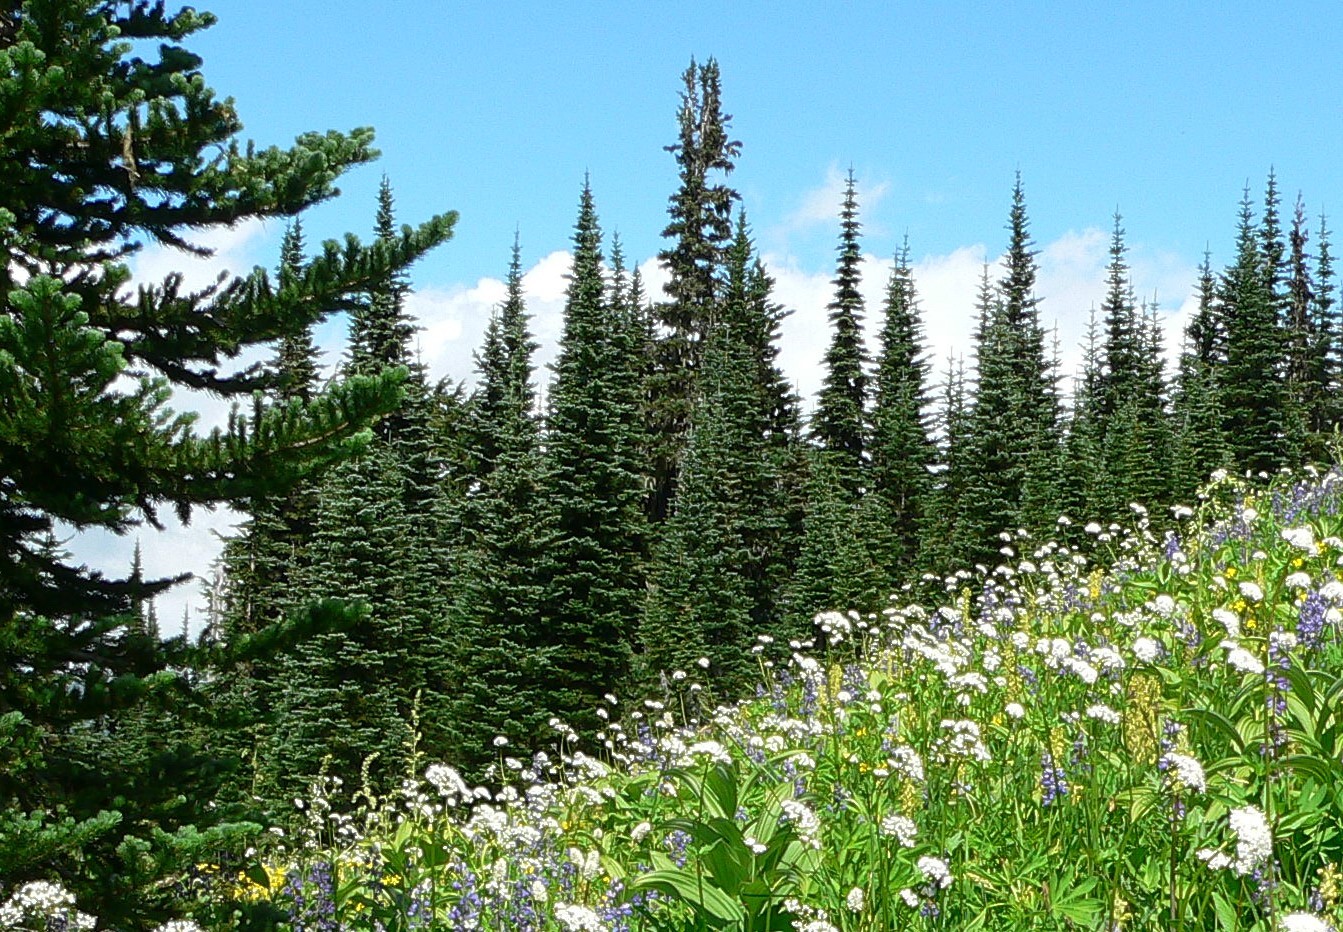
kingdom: Plantae
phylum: Tracheophyta
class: Pinopsida
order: Pinales
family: Pinaceae
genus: Abies
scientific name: Abies lasiocarpa
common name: Subalpine fir
